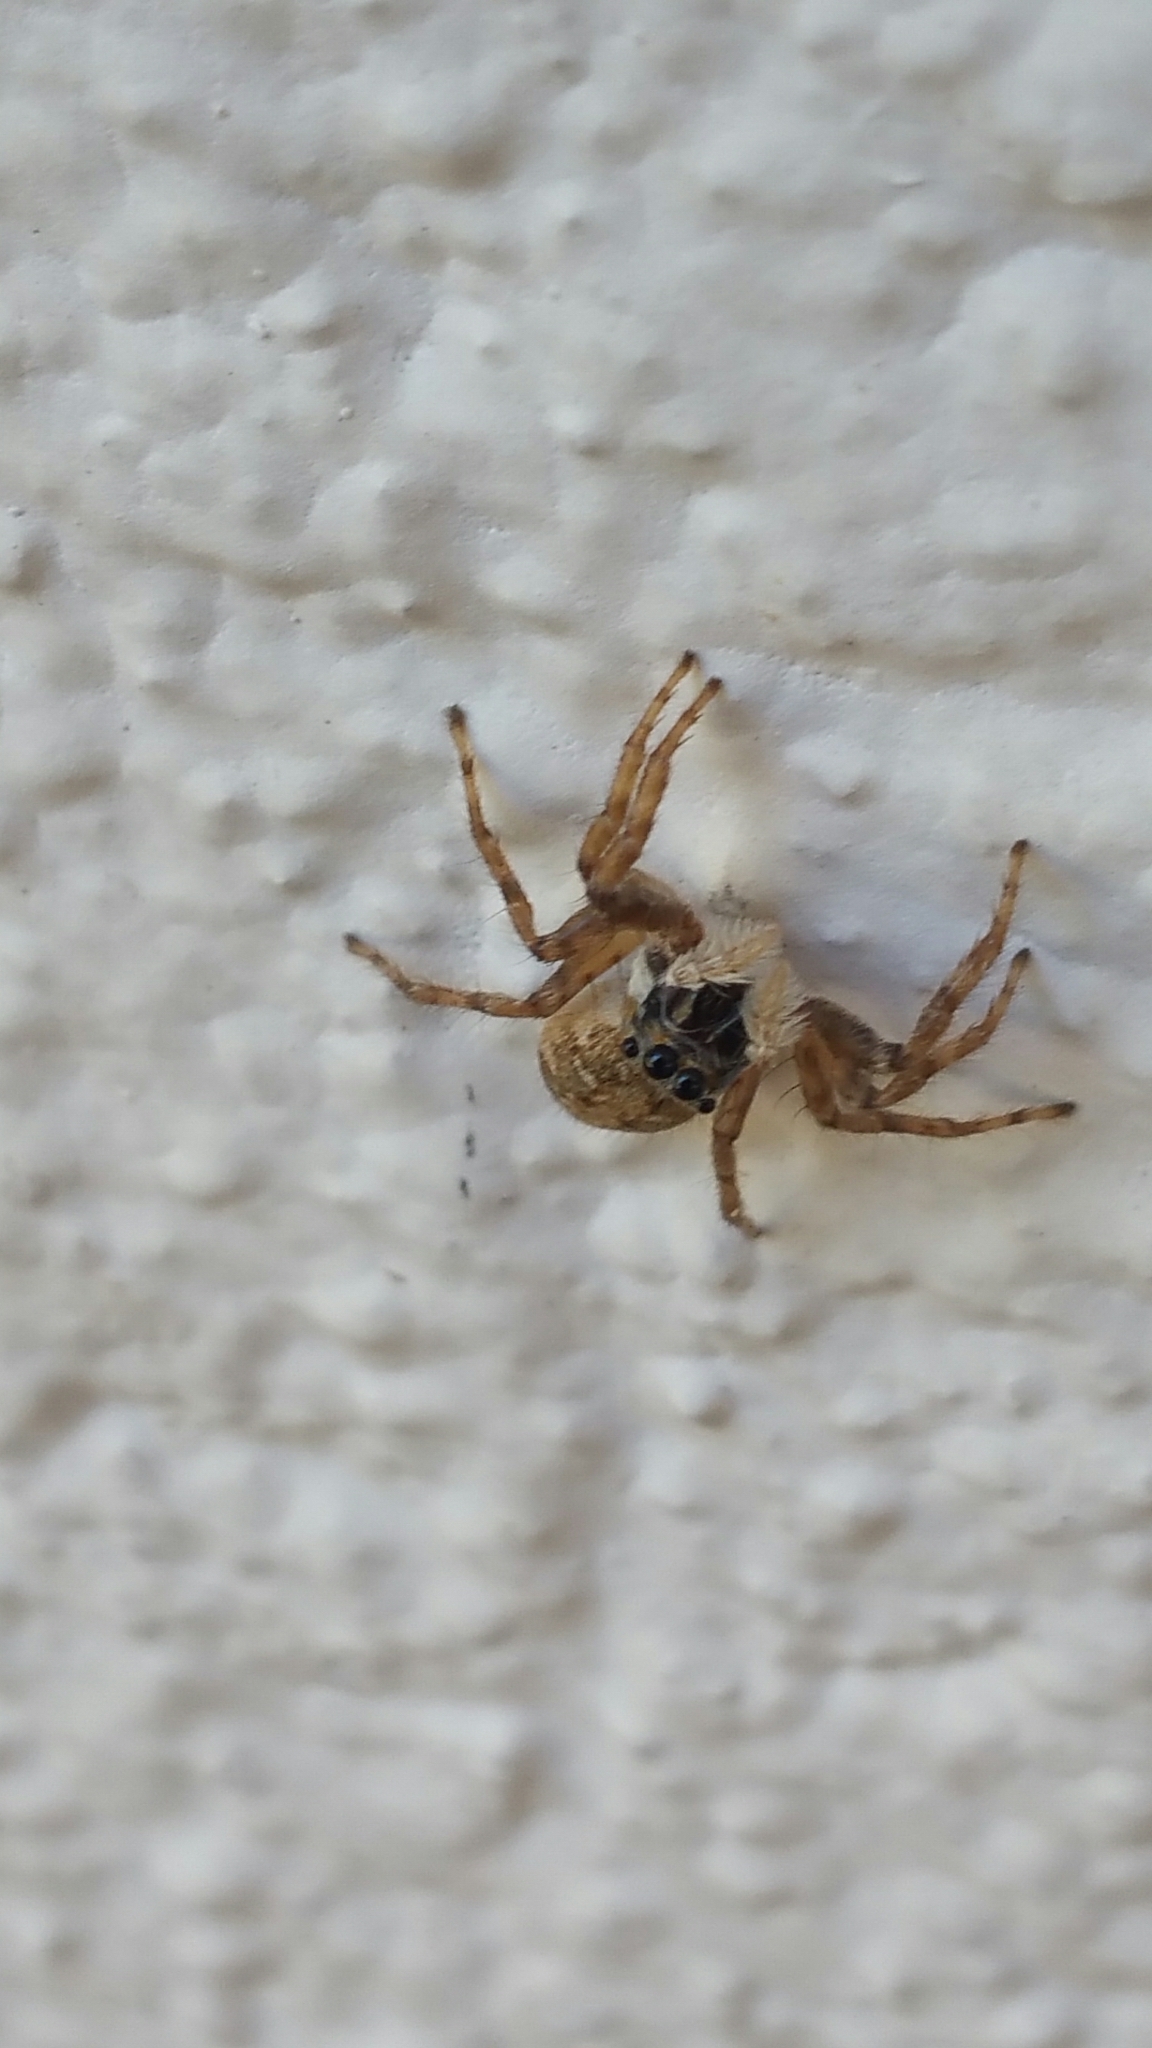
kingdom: Animalia
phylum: Arthropoda
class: Arachnida
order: Araneae
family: Salticidae
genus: Menemerus
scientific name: Menemerus semilimbatus
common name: Jumping spider
